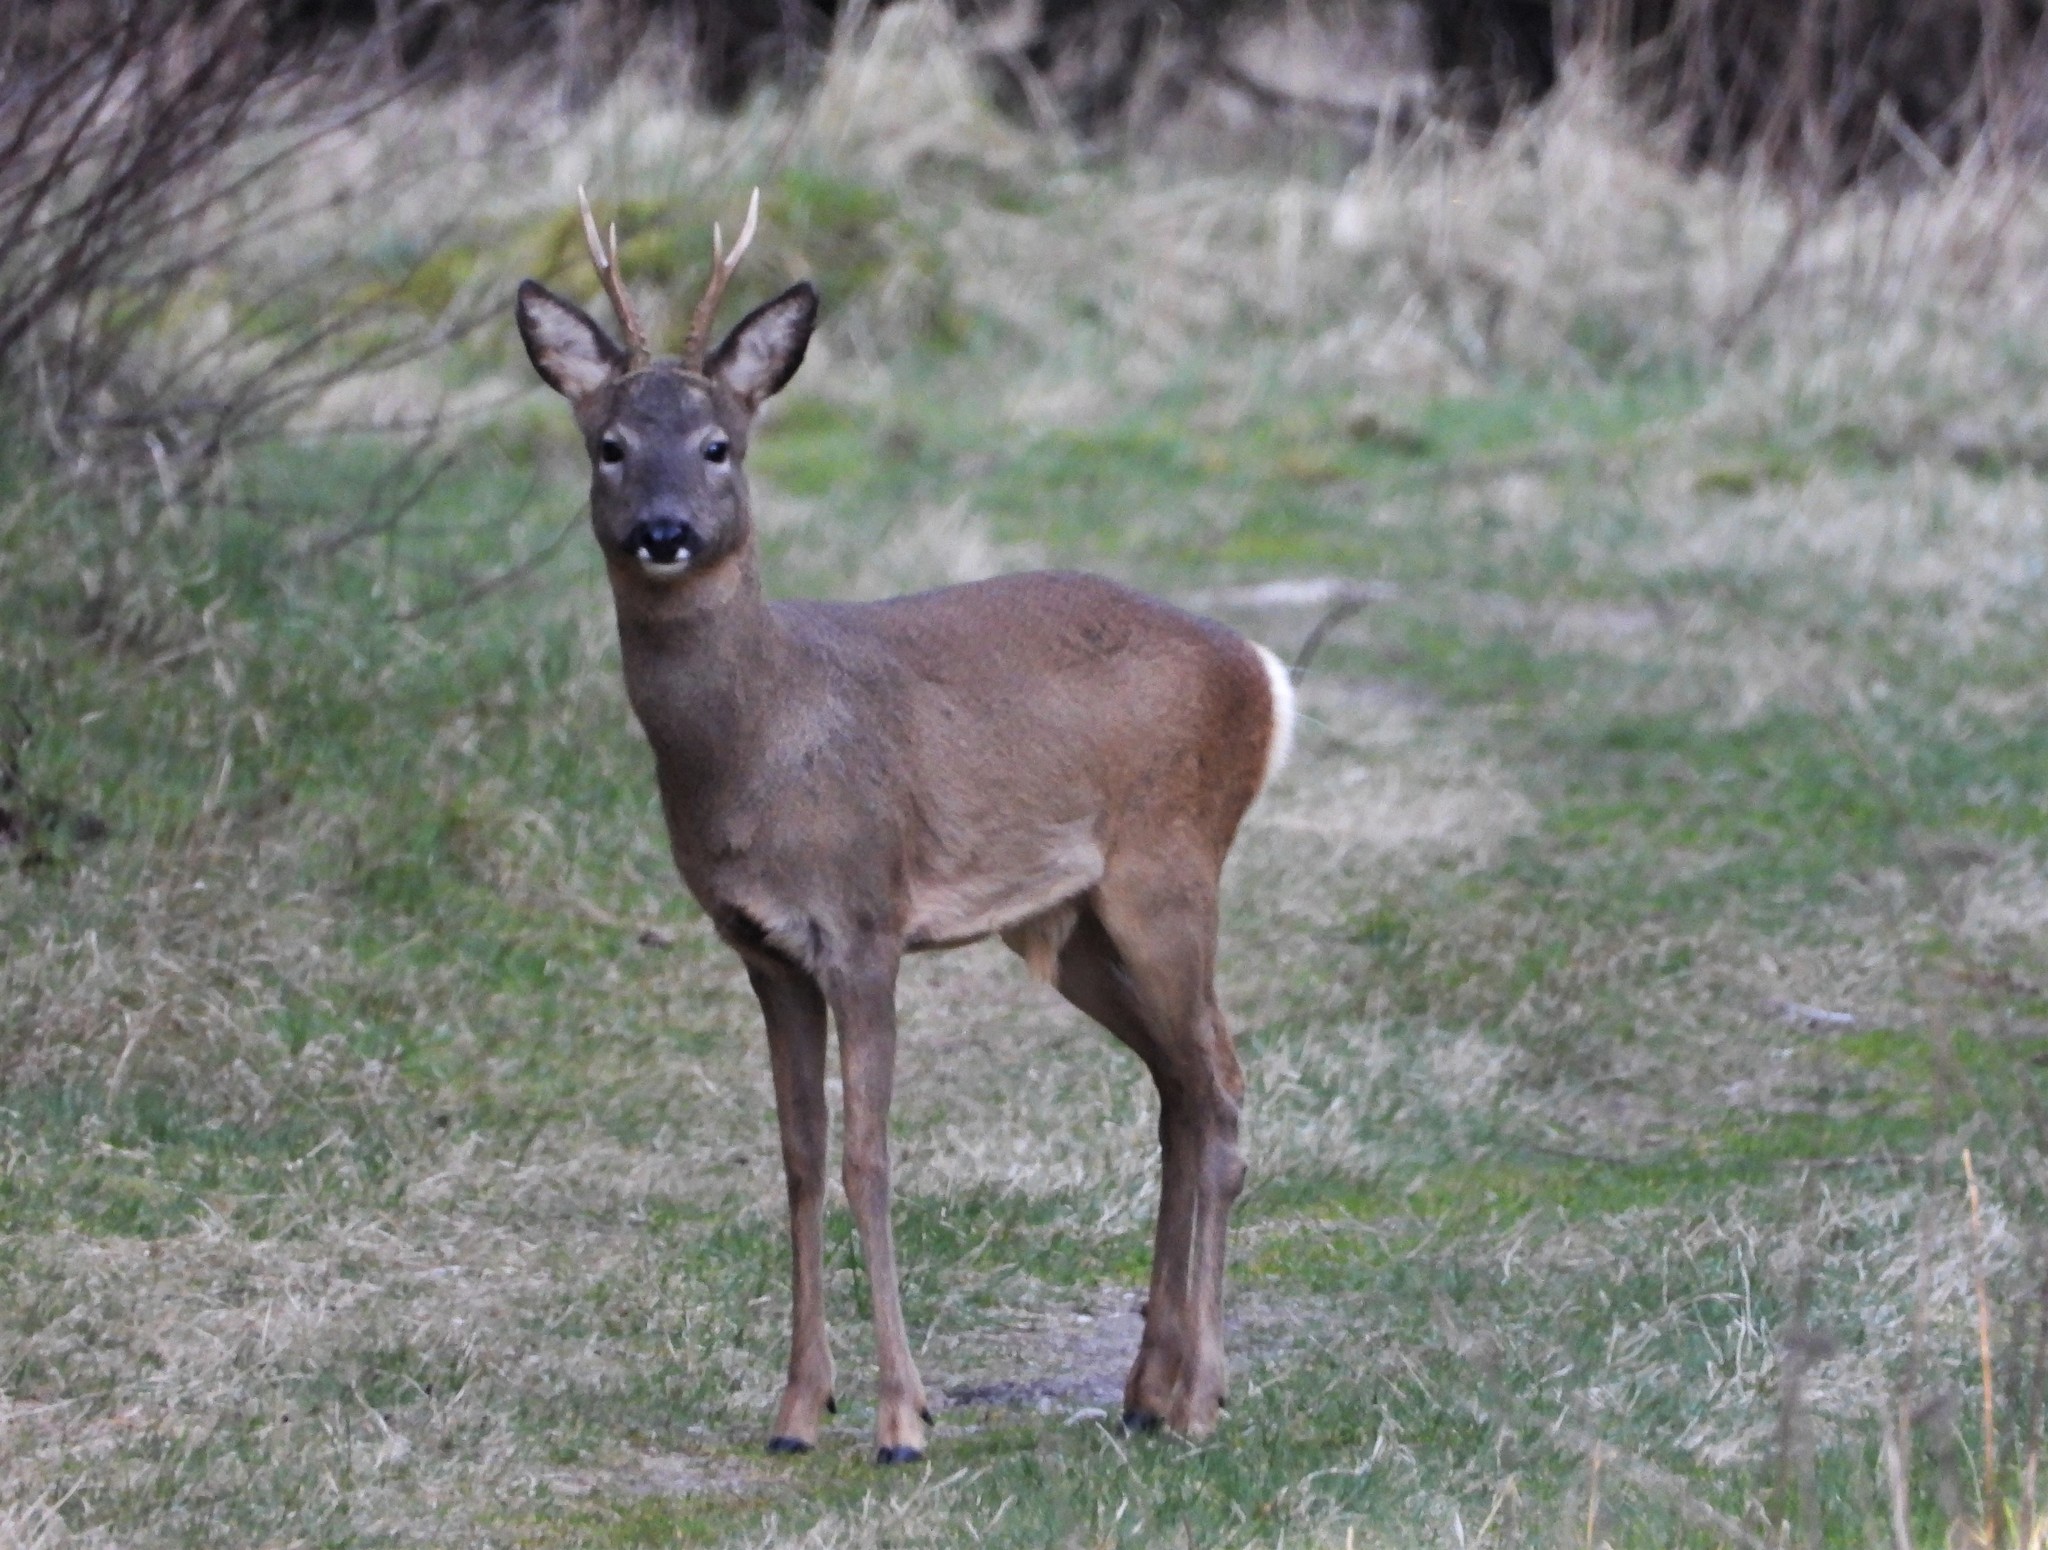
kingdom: Animalia
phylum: Chordata
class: Mammalia
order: Artiodactyla
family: Cervidae
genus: Capreolus
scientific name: Capreolus capreolus
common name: Western roe deer
